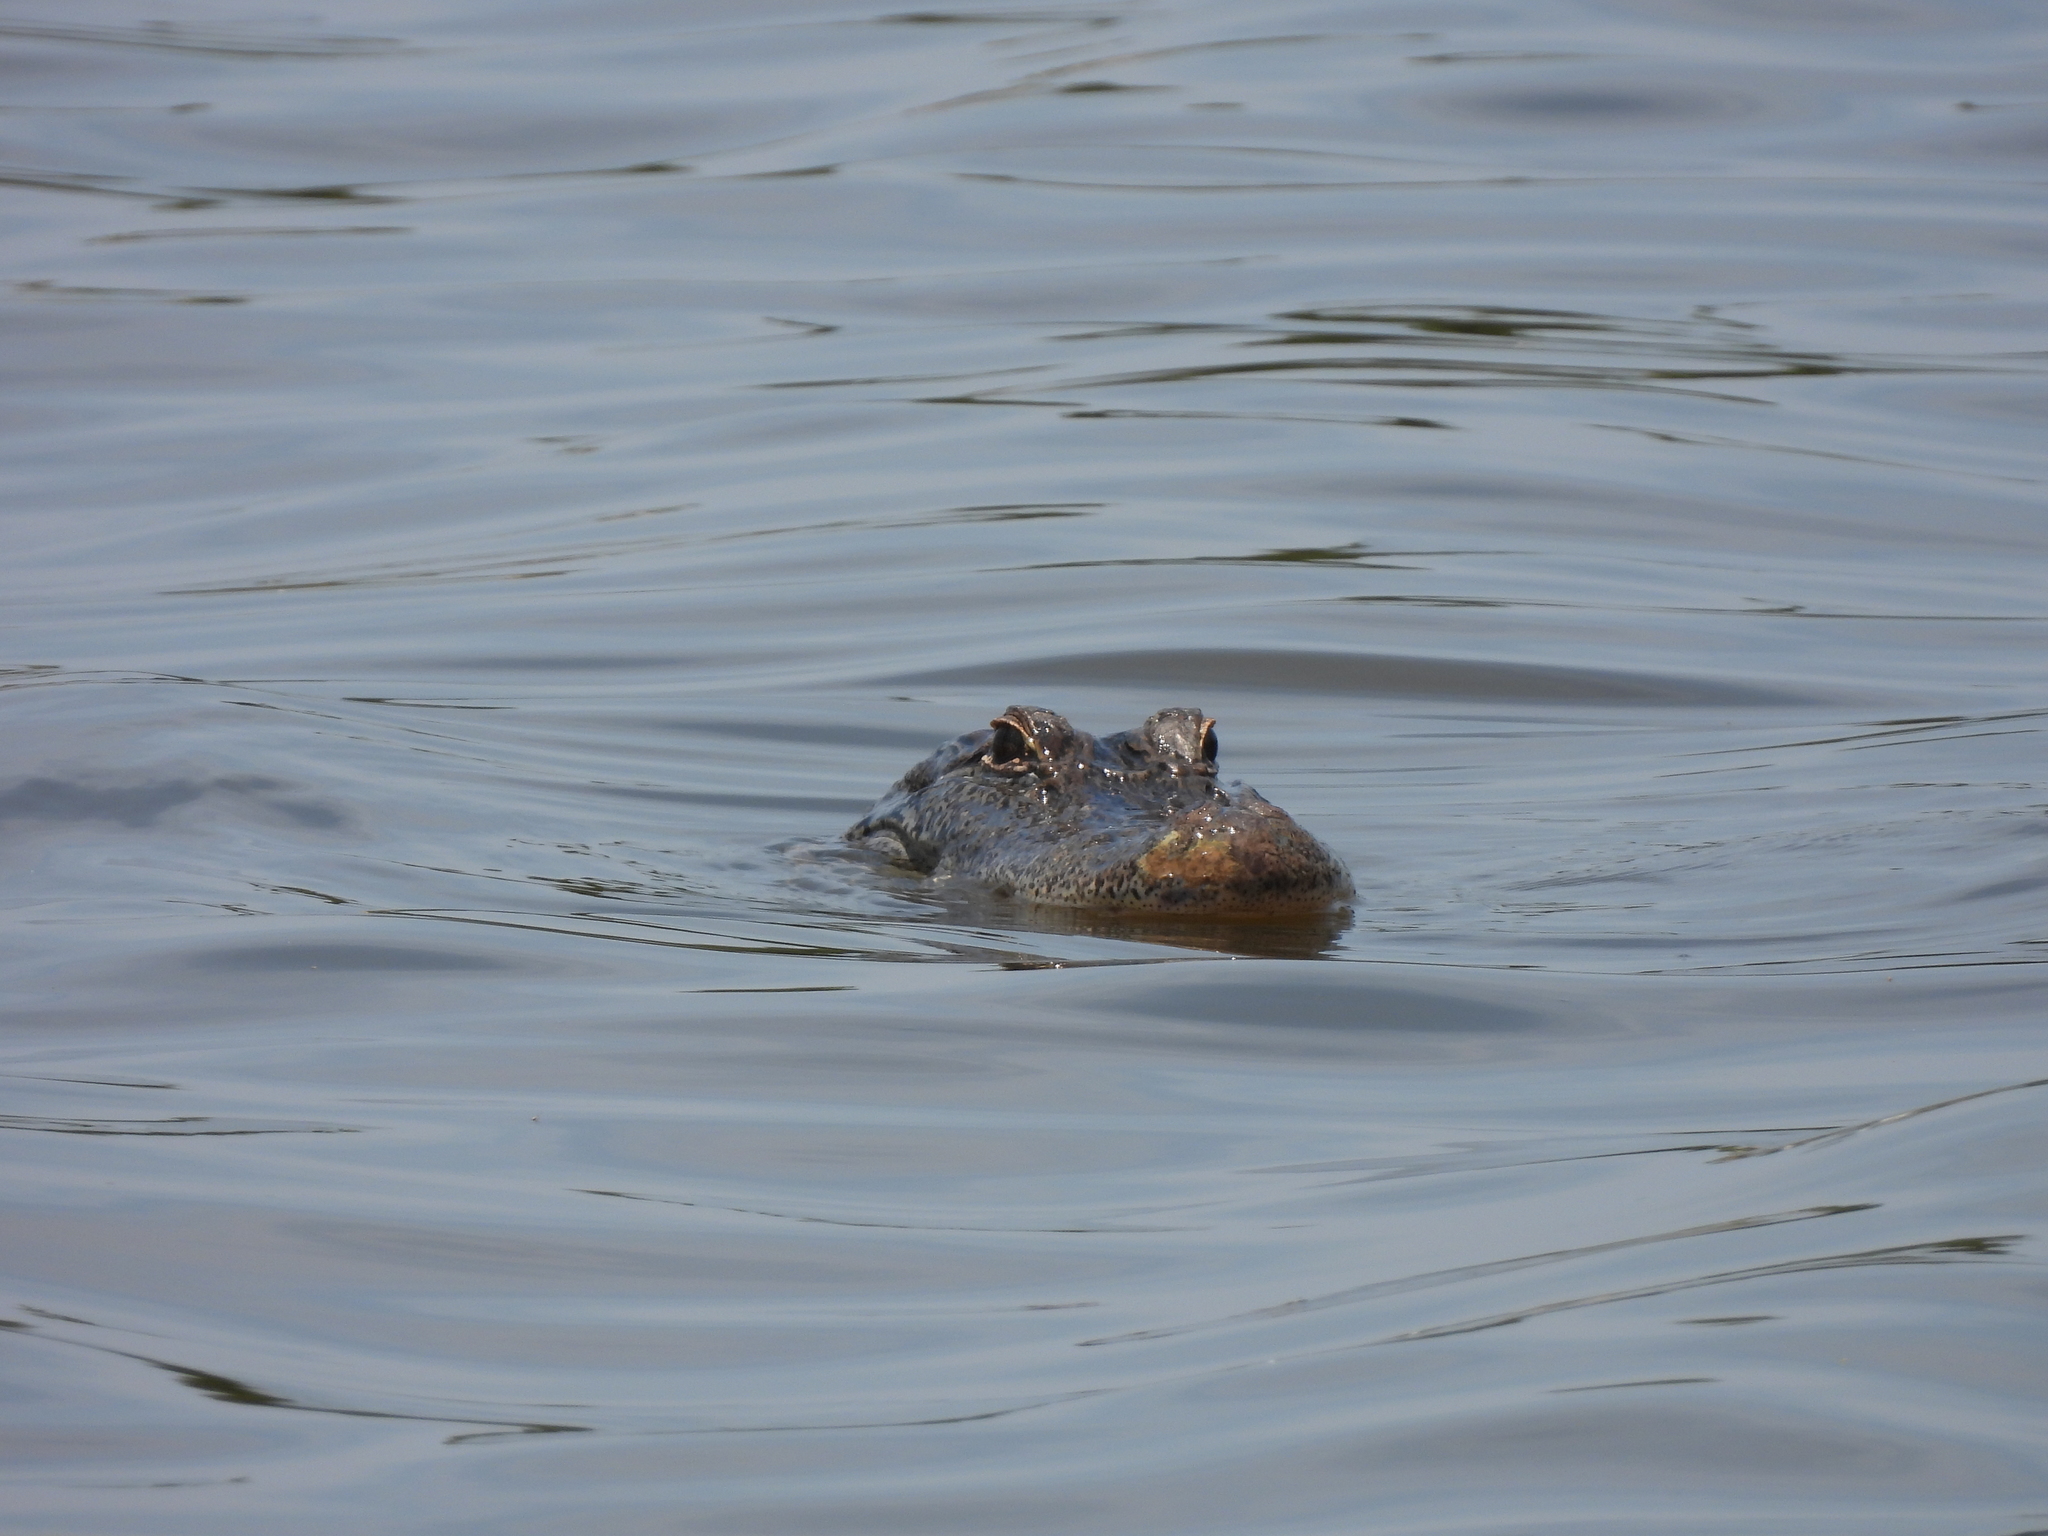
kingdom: Animalia
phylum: Chordata
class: Crocodylia
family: Alligatoridae
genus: Alligator
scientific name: Alligator mississippiensis
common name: American alligator
